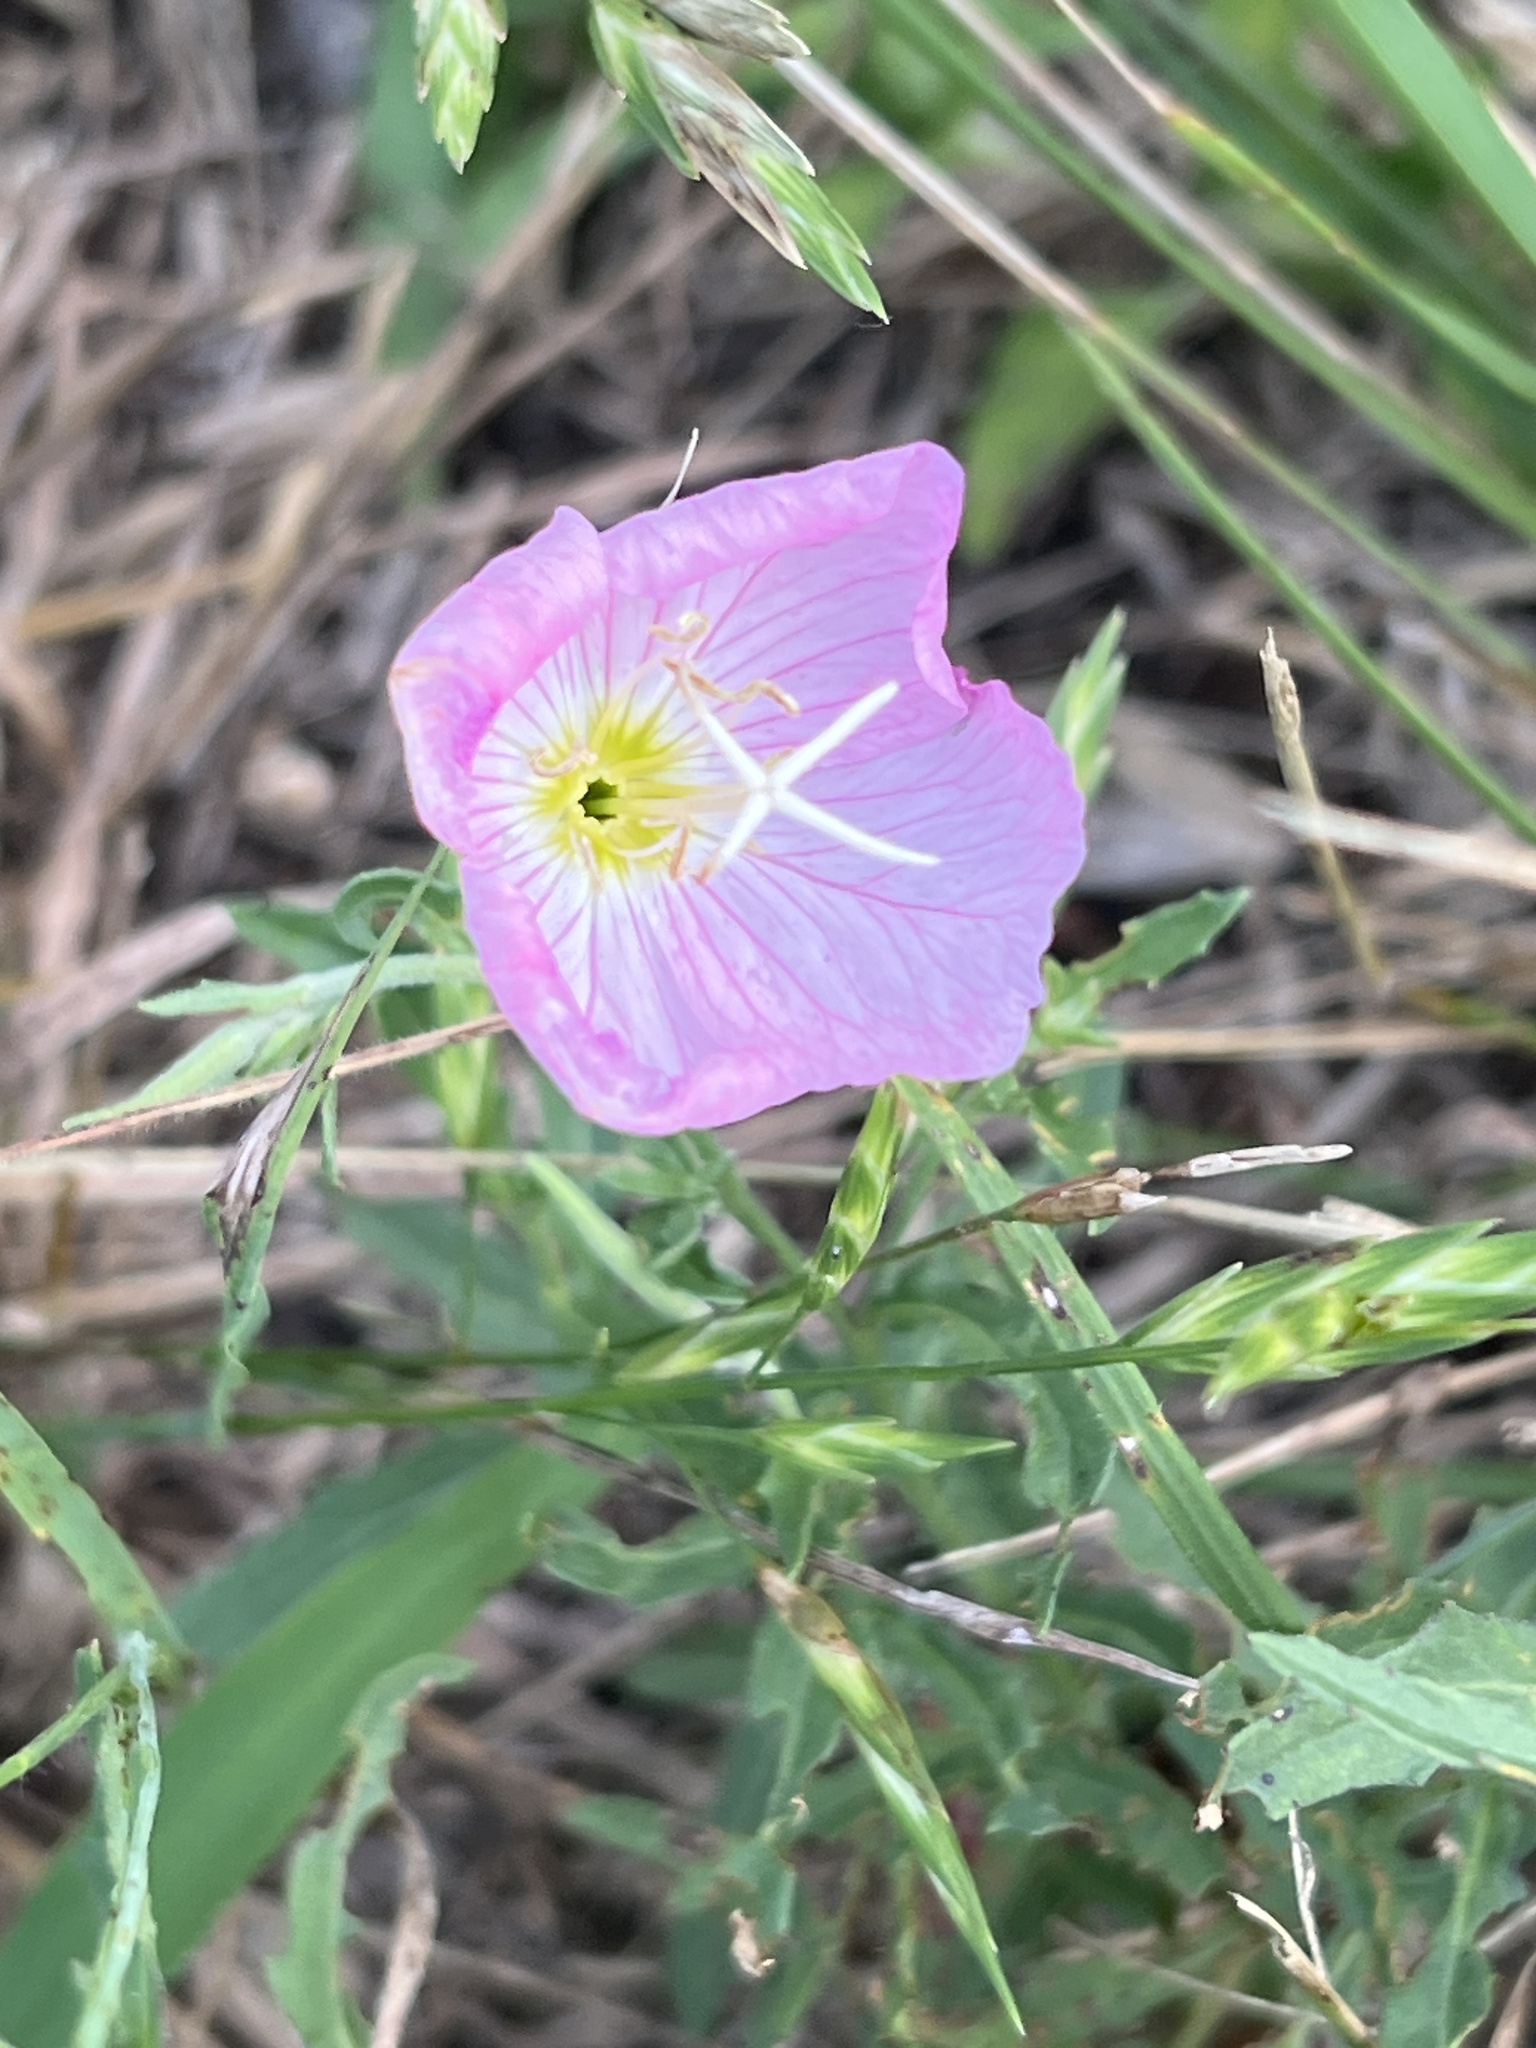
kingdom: Plantae
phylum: Tracheophyta
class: Magnoliopsida
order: Myrtales
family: Onagraceae
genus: Oenothera
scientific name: Oenothera speciosa
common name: White evening-primrose
